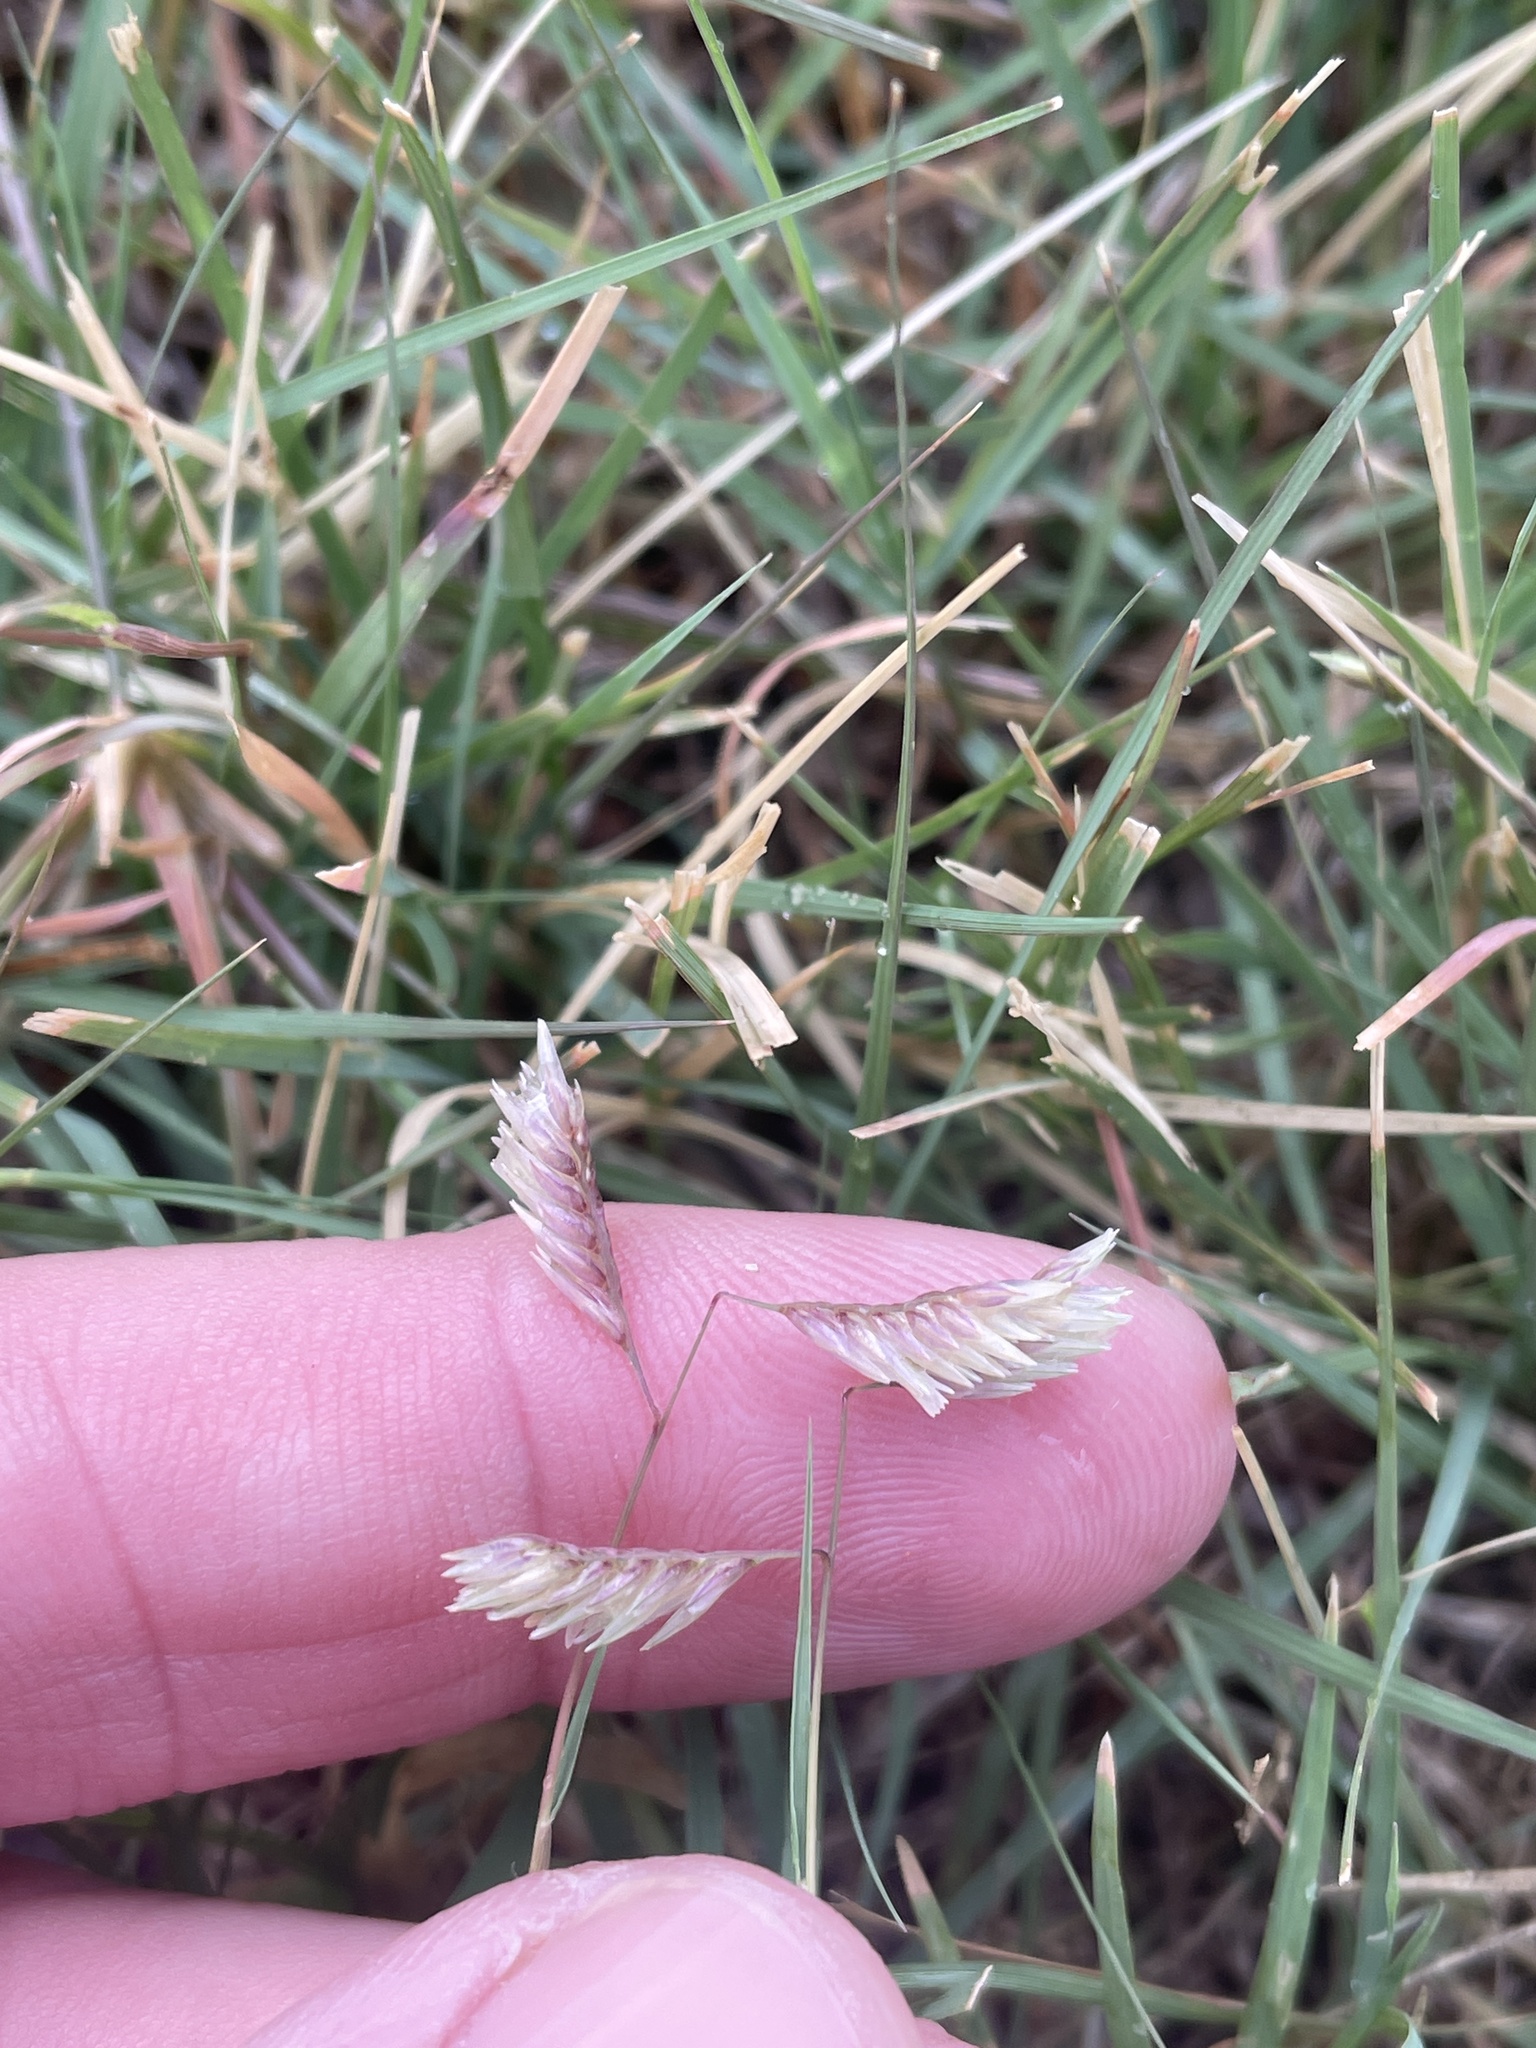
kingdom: Plantae
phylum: Tracheophyta
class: Liliopsida
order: Poales
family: Poaceae
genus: Bouteloua
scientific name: Bouteloua dactyloides
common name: Buffalo grass
